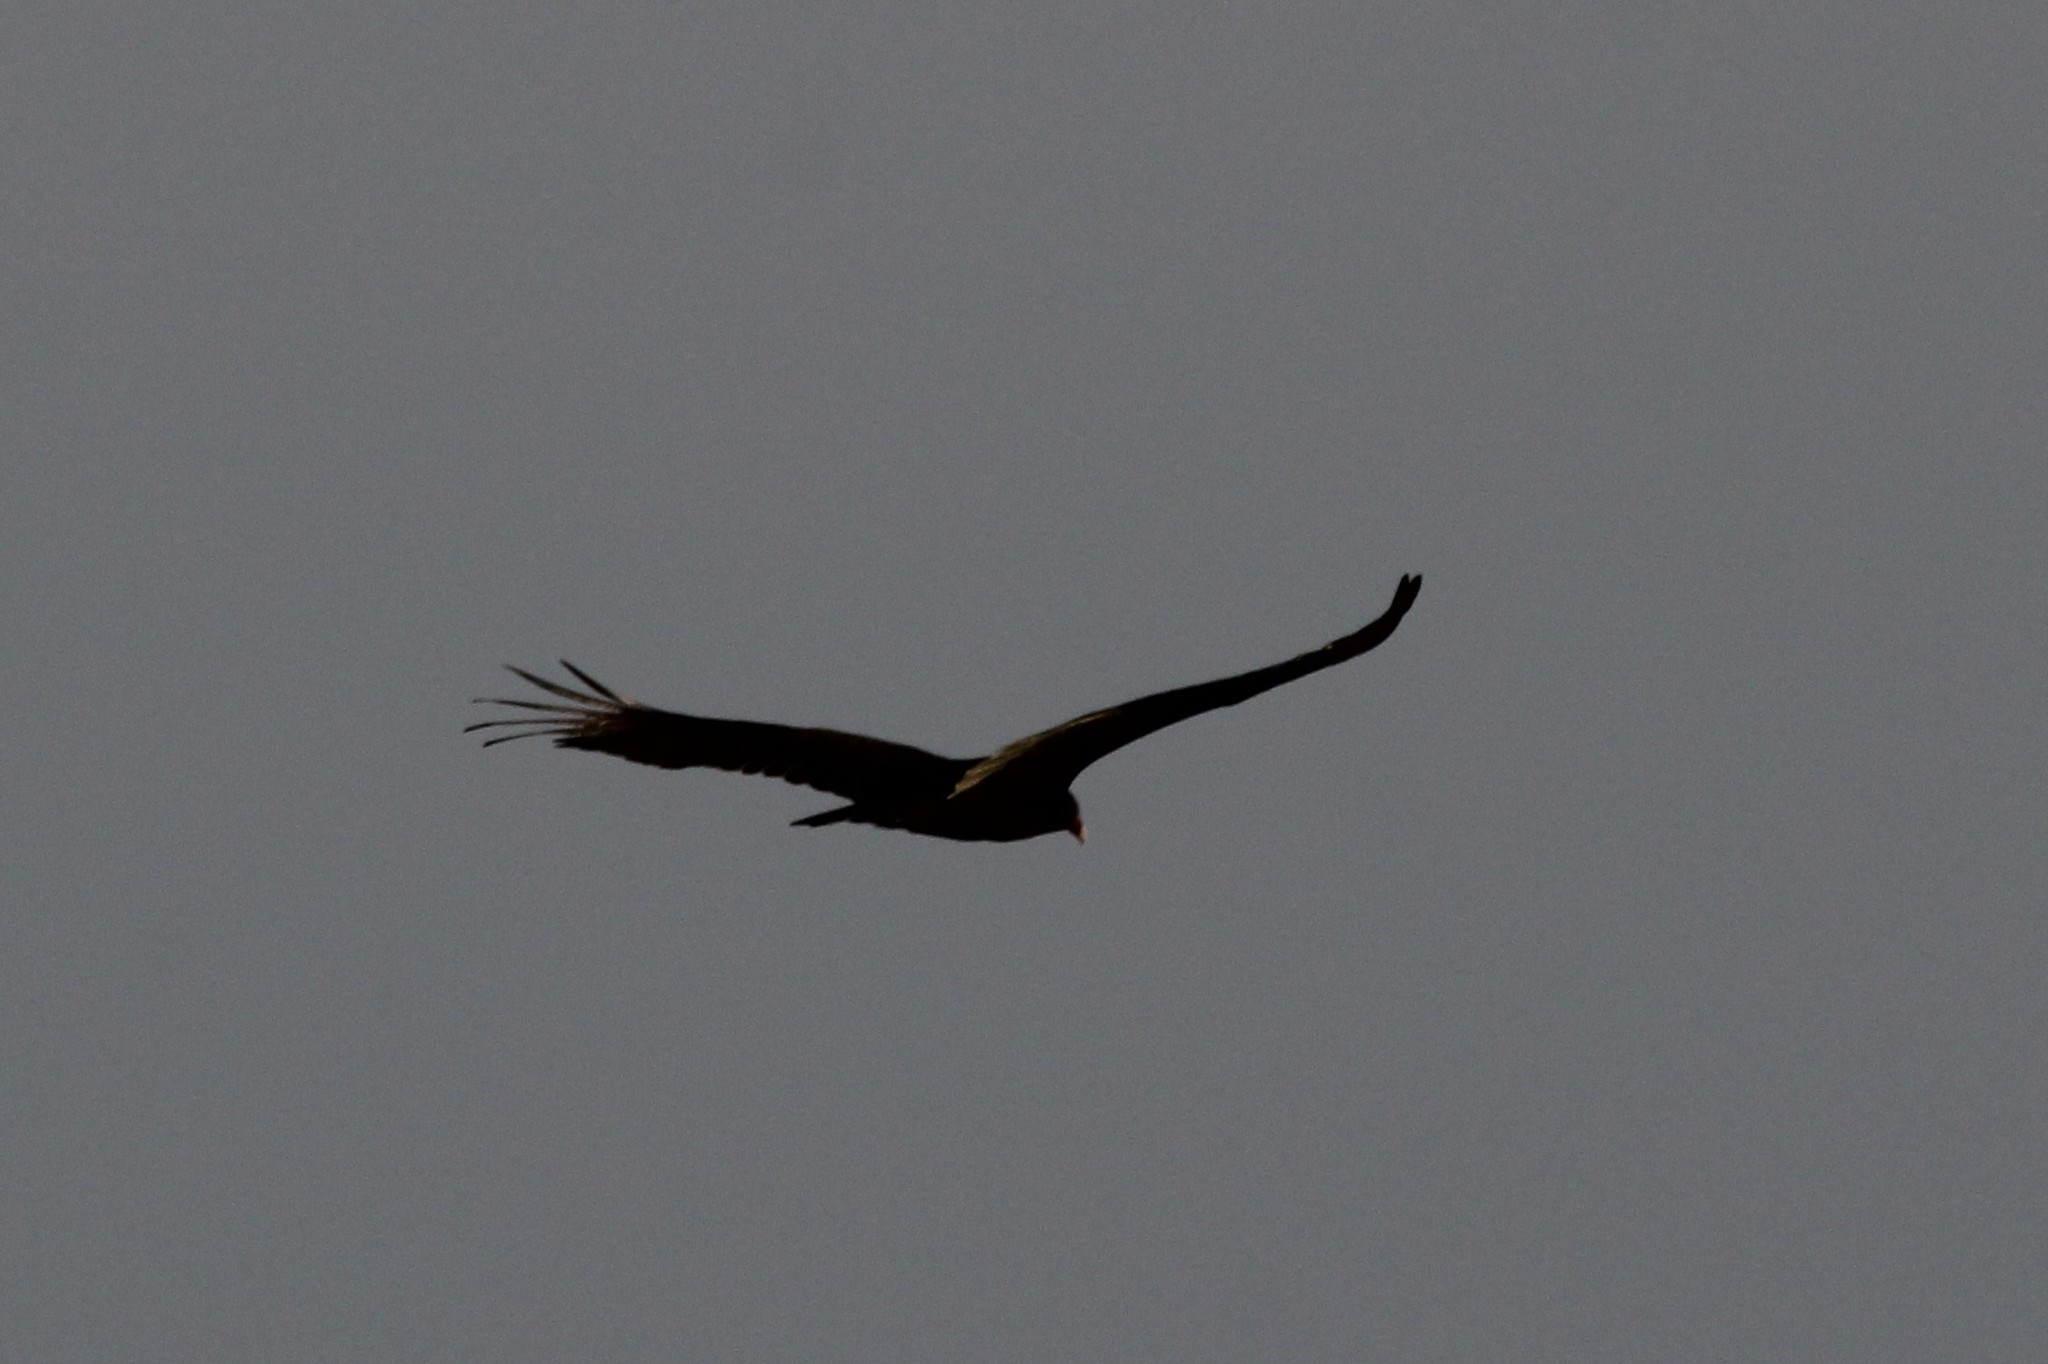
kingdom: Animalia
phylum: Chordata
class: Aves
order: Accipitriformes
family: Cathartidae
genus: Cathartes
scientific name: Cathartes aura
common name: Turkey vulture
